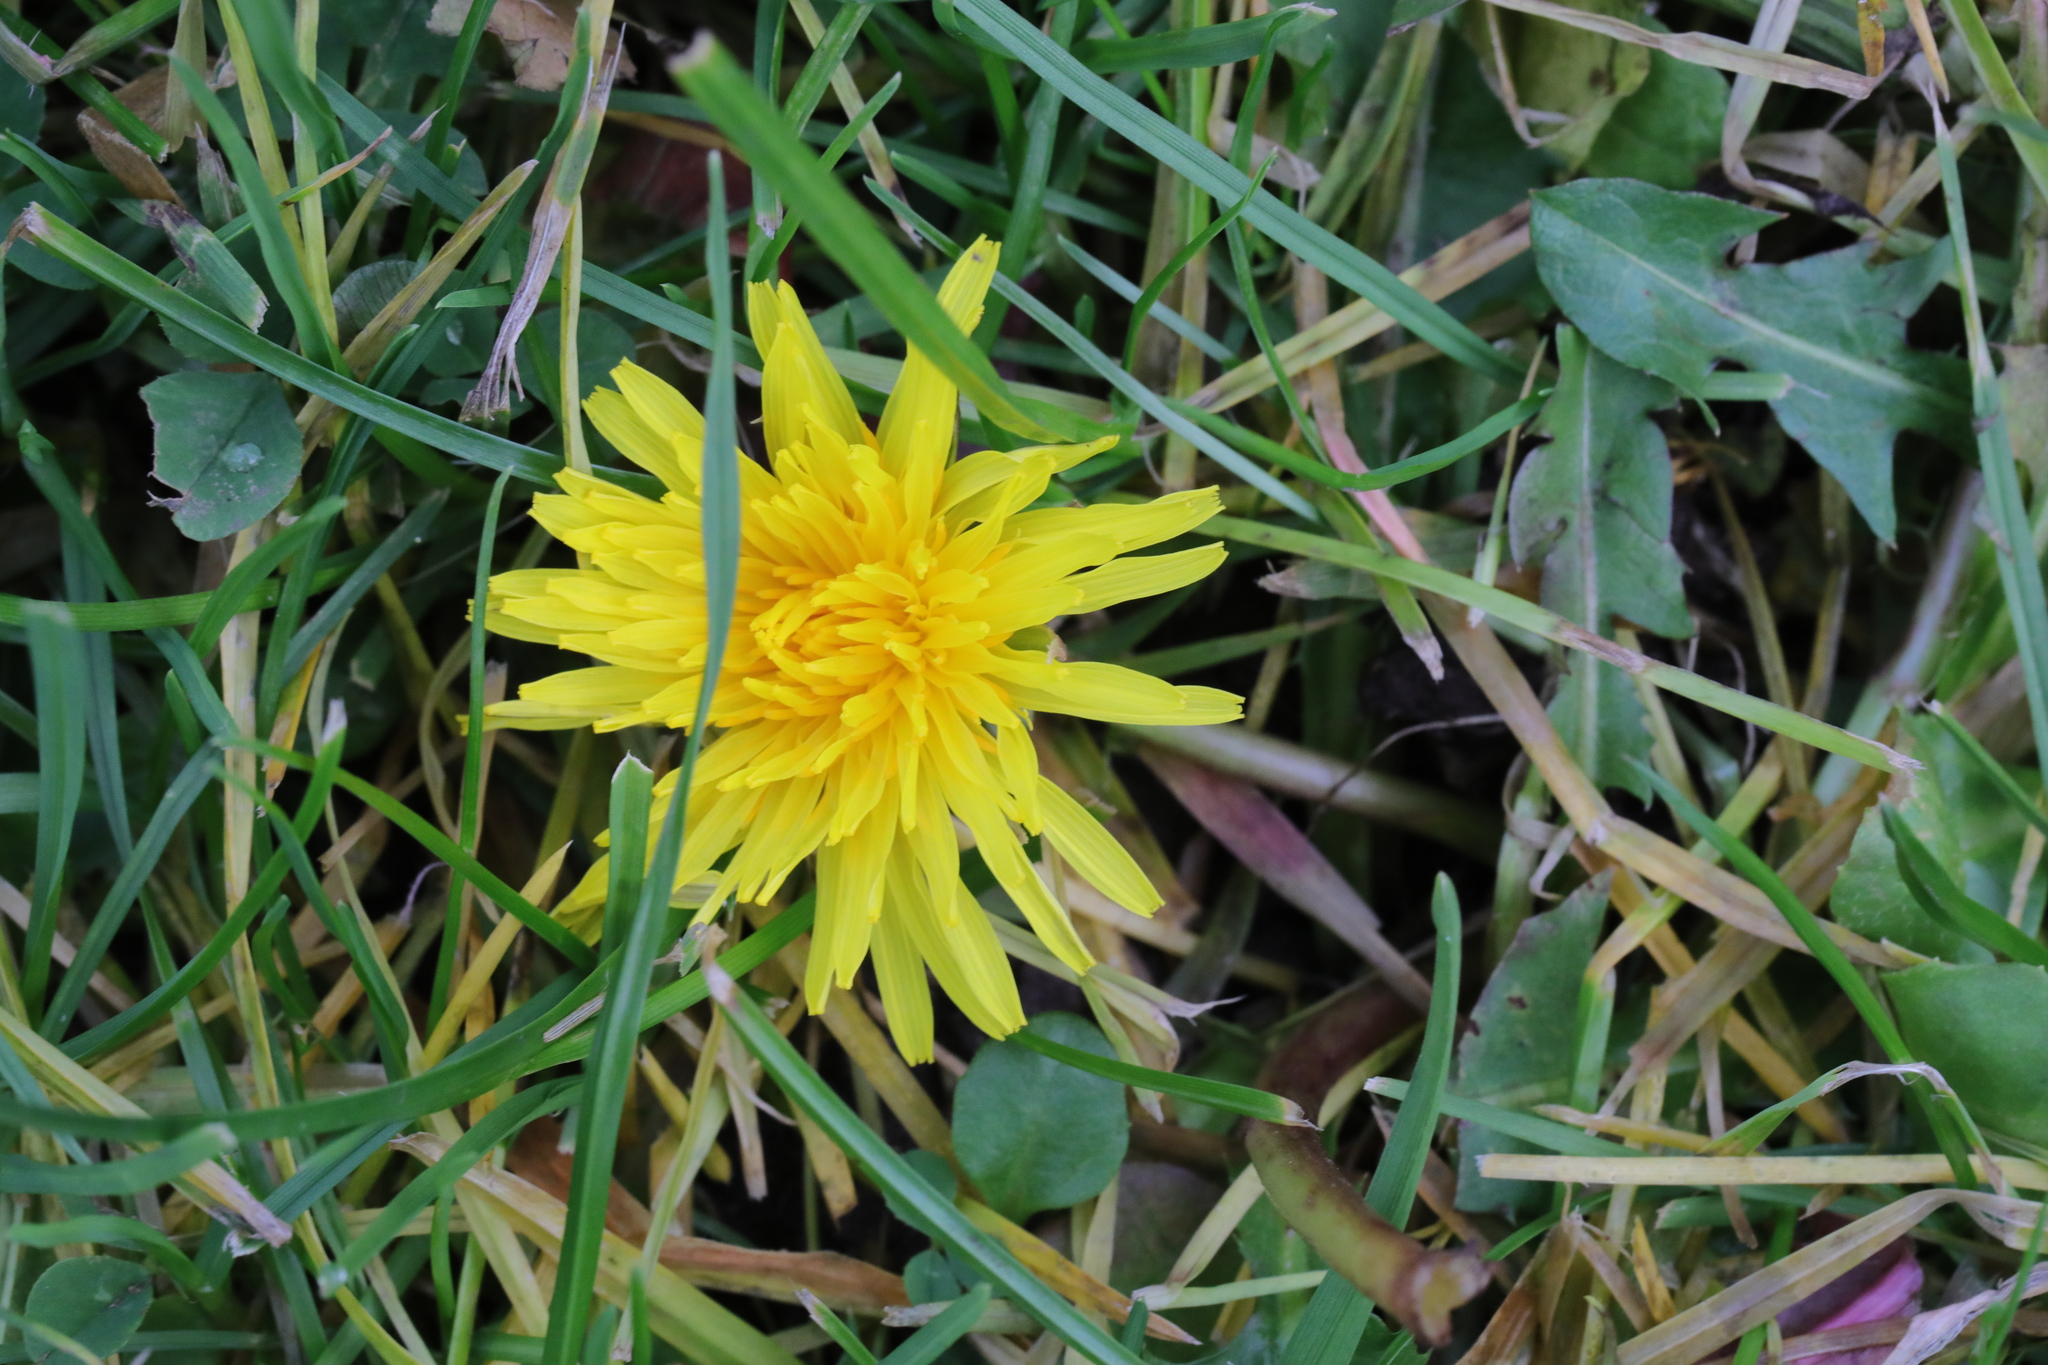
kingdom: Plantae
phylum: Tracheophyta
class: Magnoliopsida
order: Asterales
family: Asteraceae
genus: Taraxacum
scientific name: Taraxacum officinale
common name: Common dandelion
